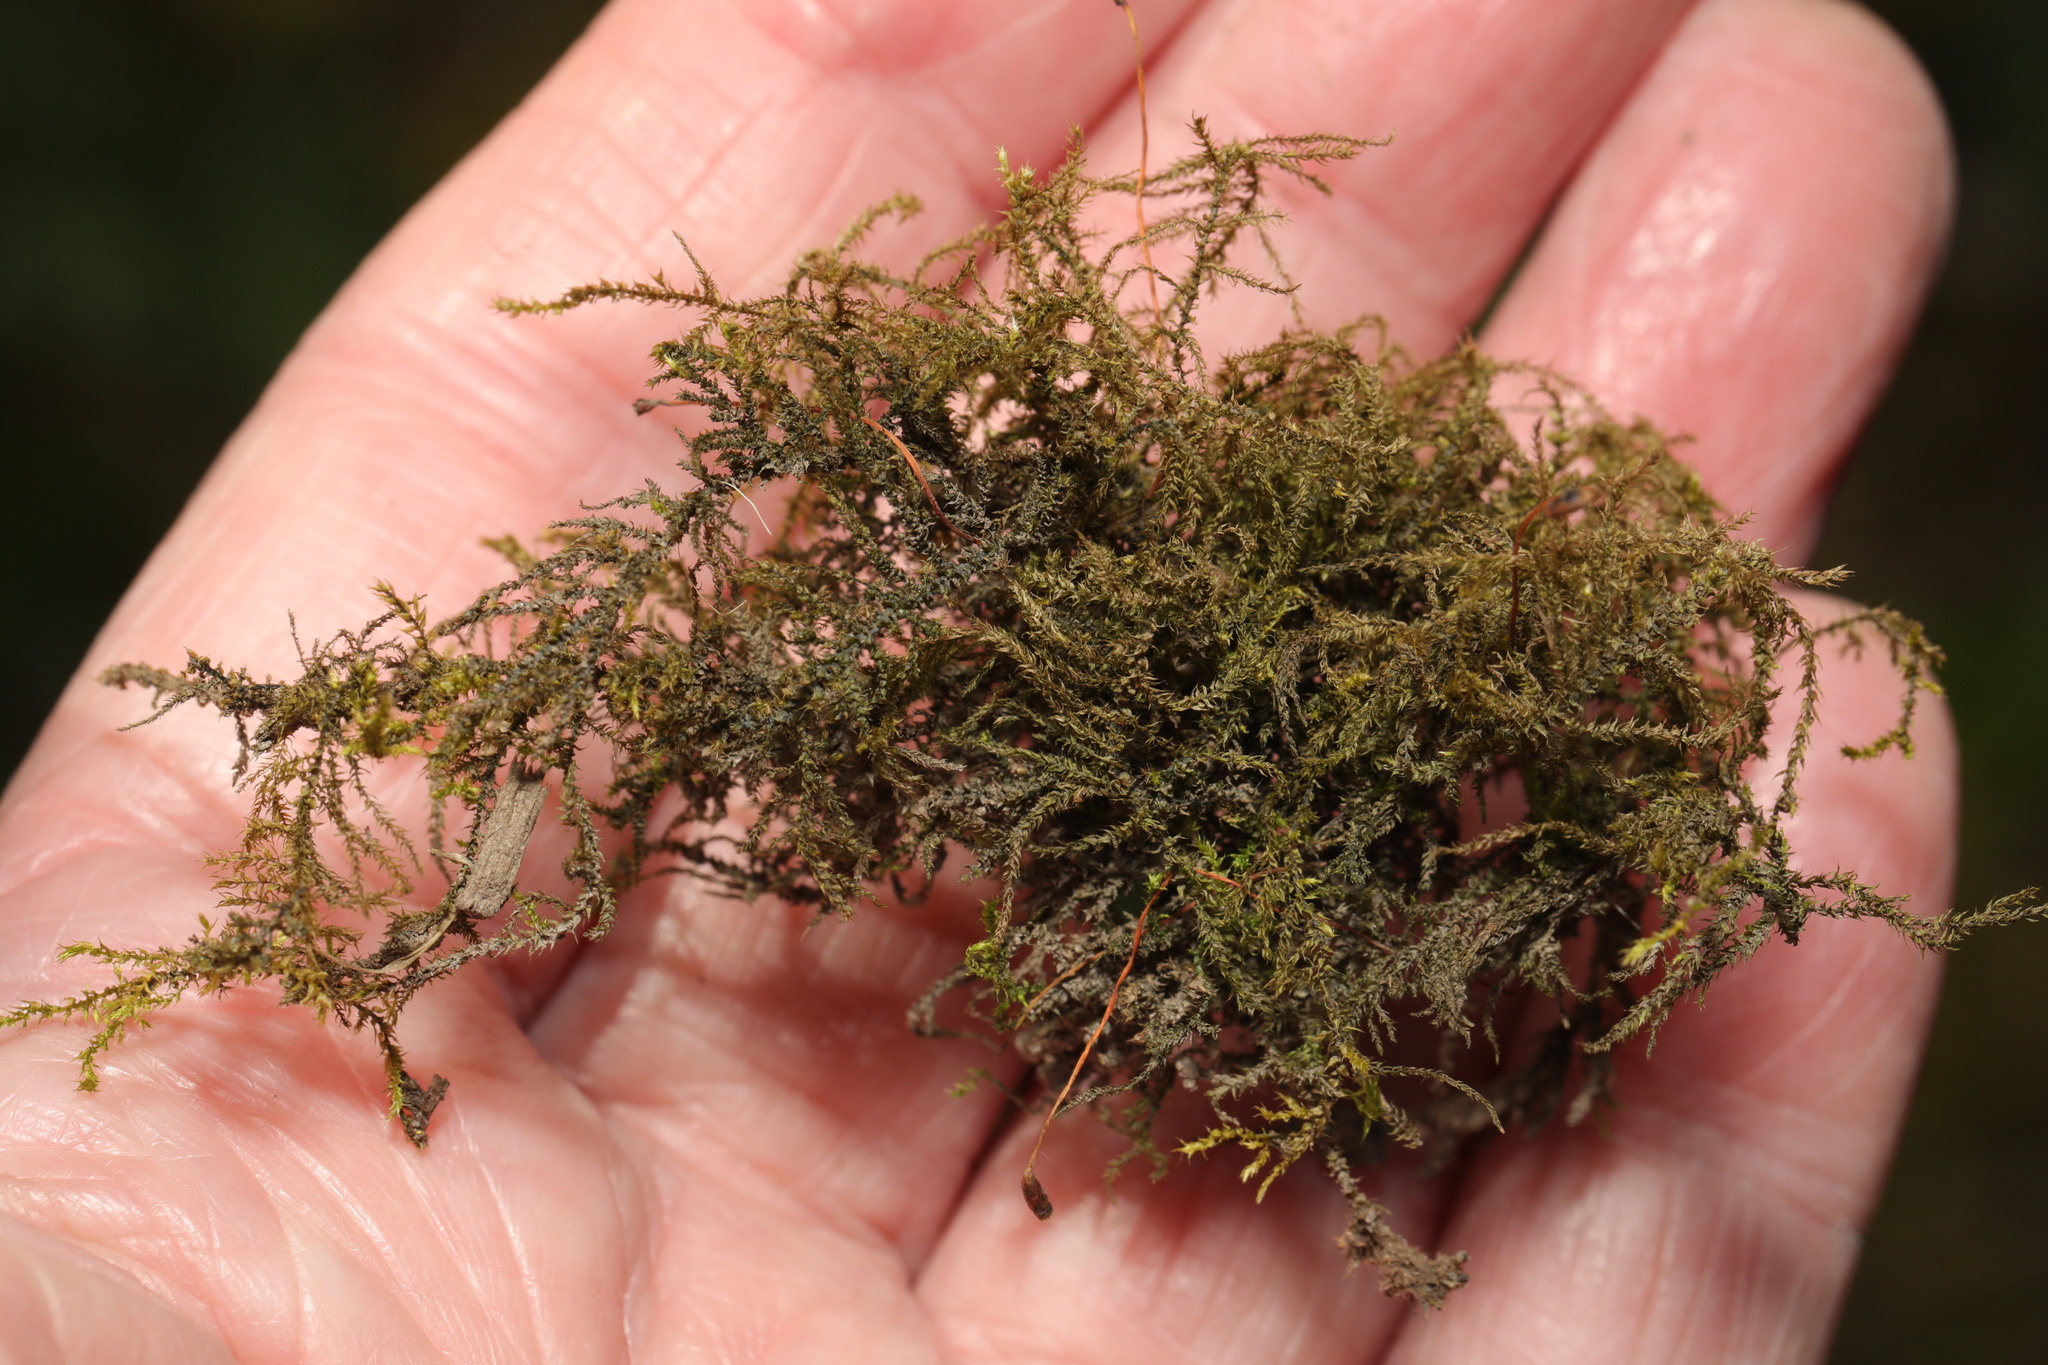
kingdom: Plantae
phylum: Bryophyta
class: Bryopsida
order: Hypnales
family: Brachytheciaceae
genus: Oxyrrhynchium
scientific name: Oxyrrhynchium hians
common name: Spreading beaked moss
